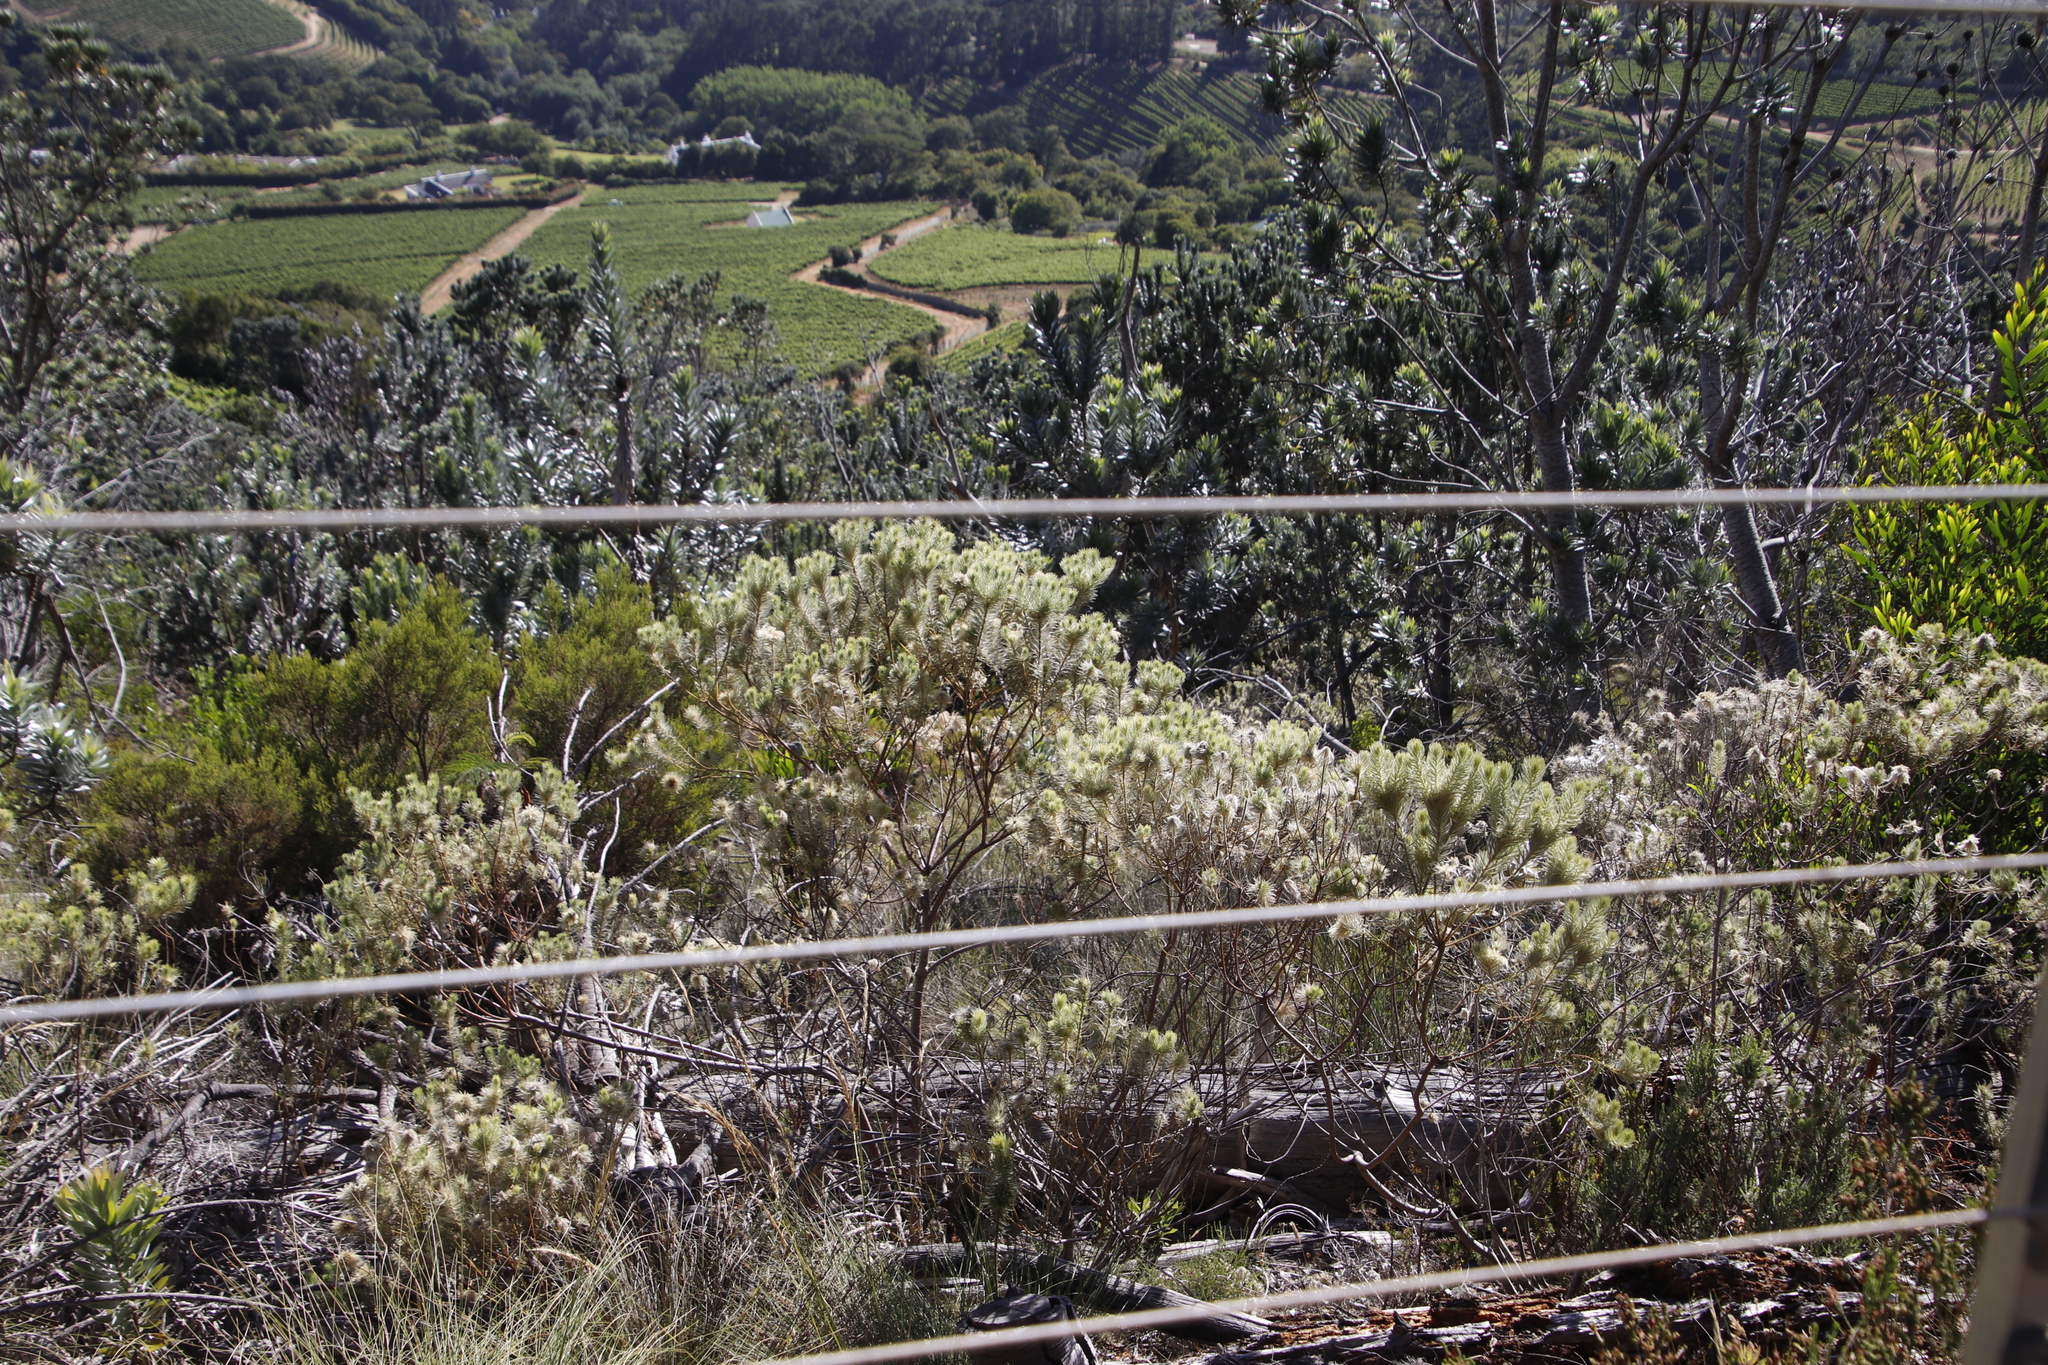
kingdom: Plantae
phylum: Tracheophyta
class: Magnoliopsida
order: Rosales
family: Rhamnaceae
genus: Phylica
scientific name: Phylica pubescens
